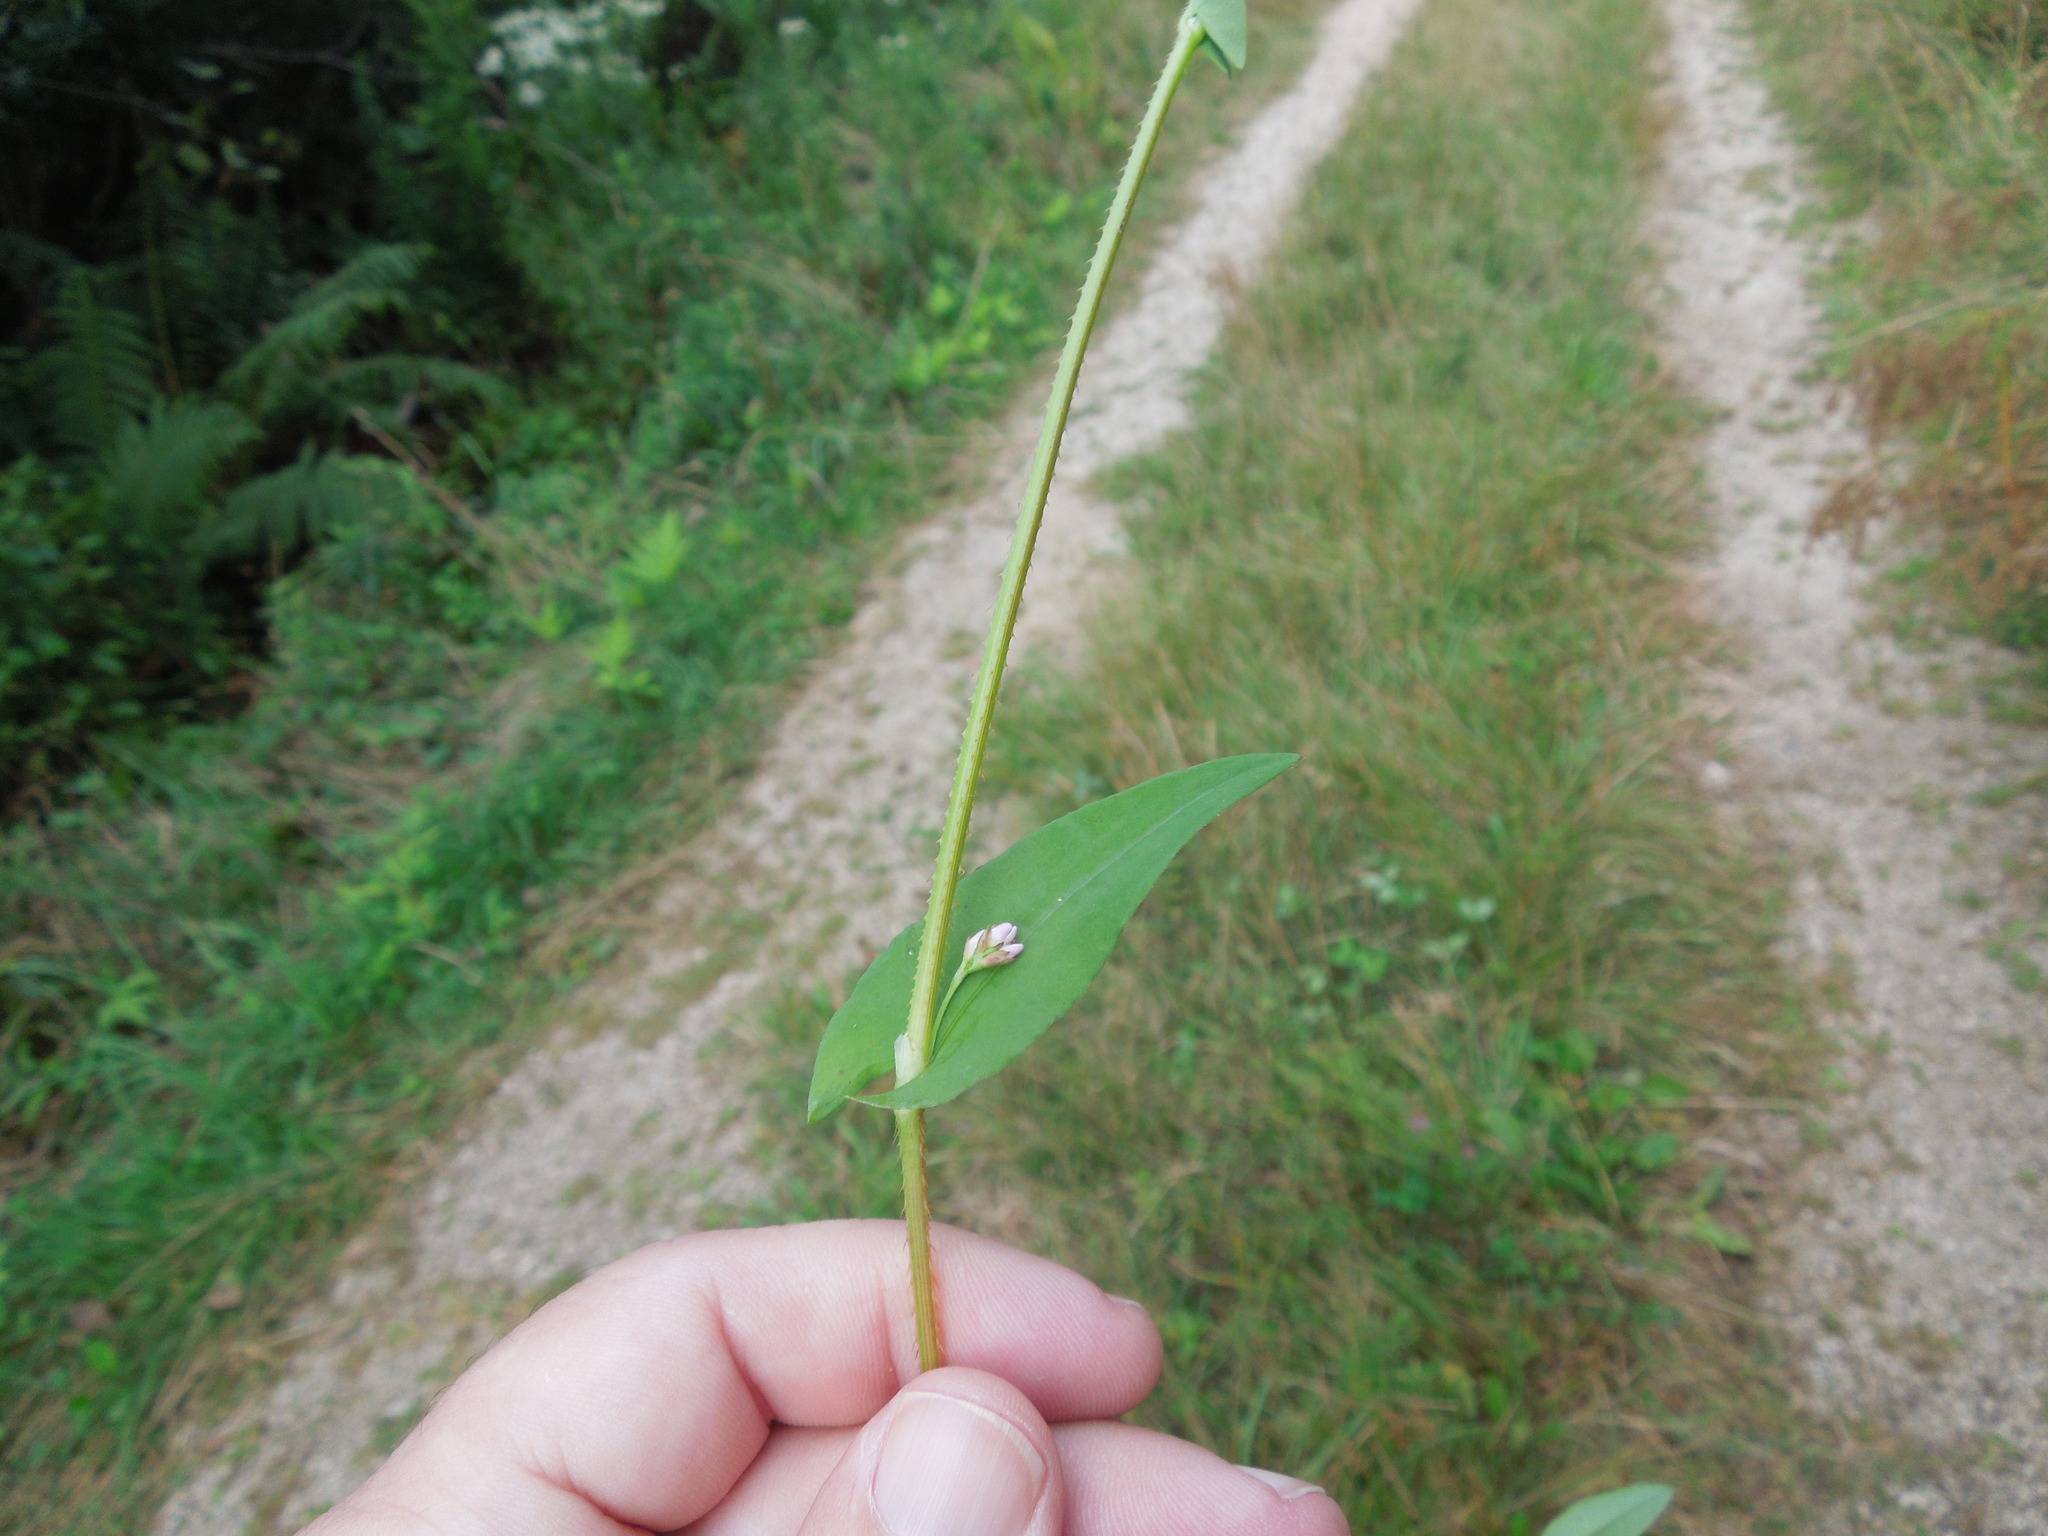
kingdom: Plantae
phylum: Tracheophyta
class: Magnoliopsida
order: Caryophyllales
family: Polygonaceae
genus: Persicaria
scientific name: Persicaria sagittata
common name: American tearthumb
